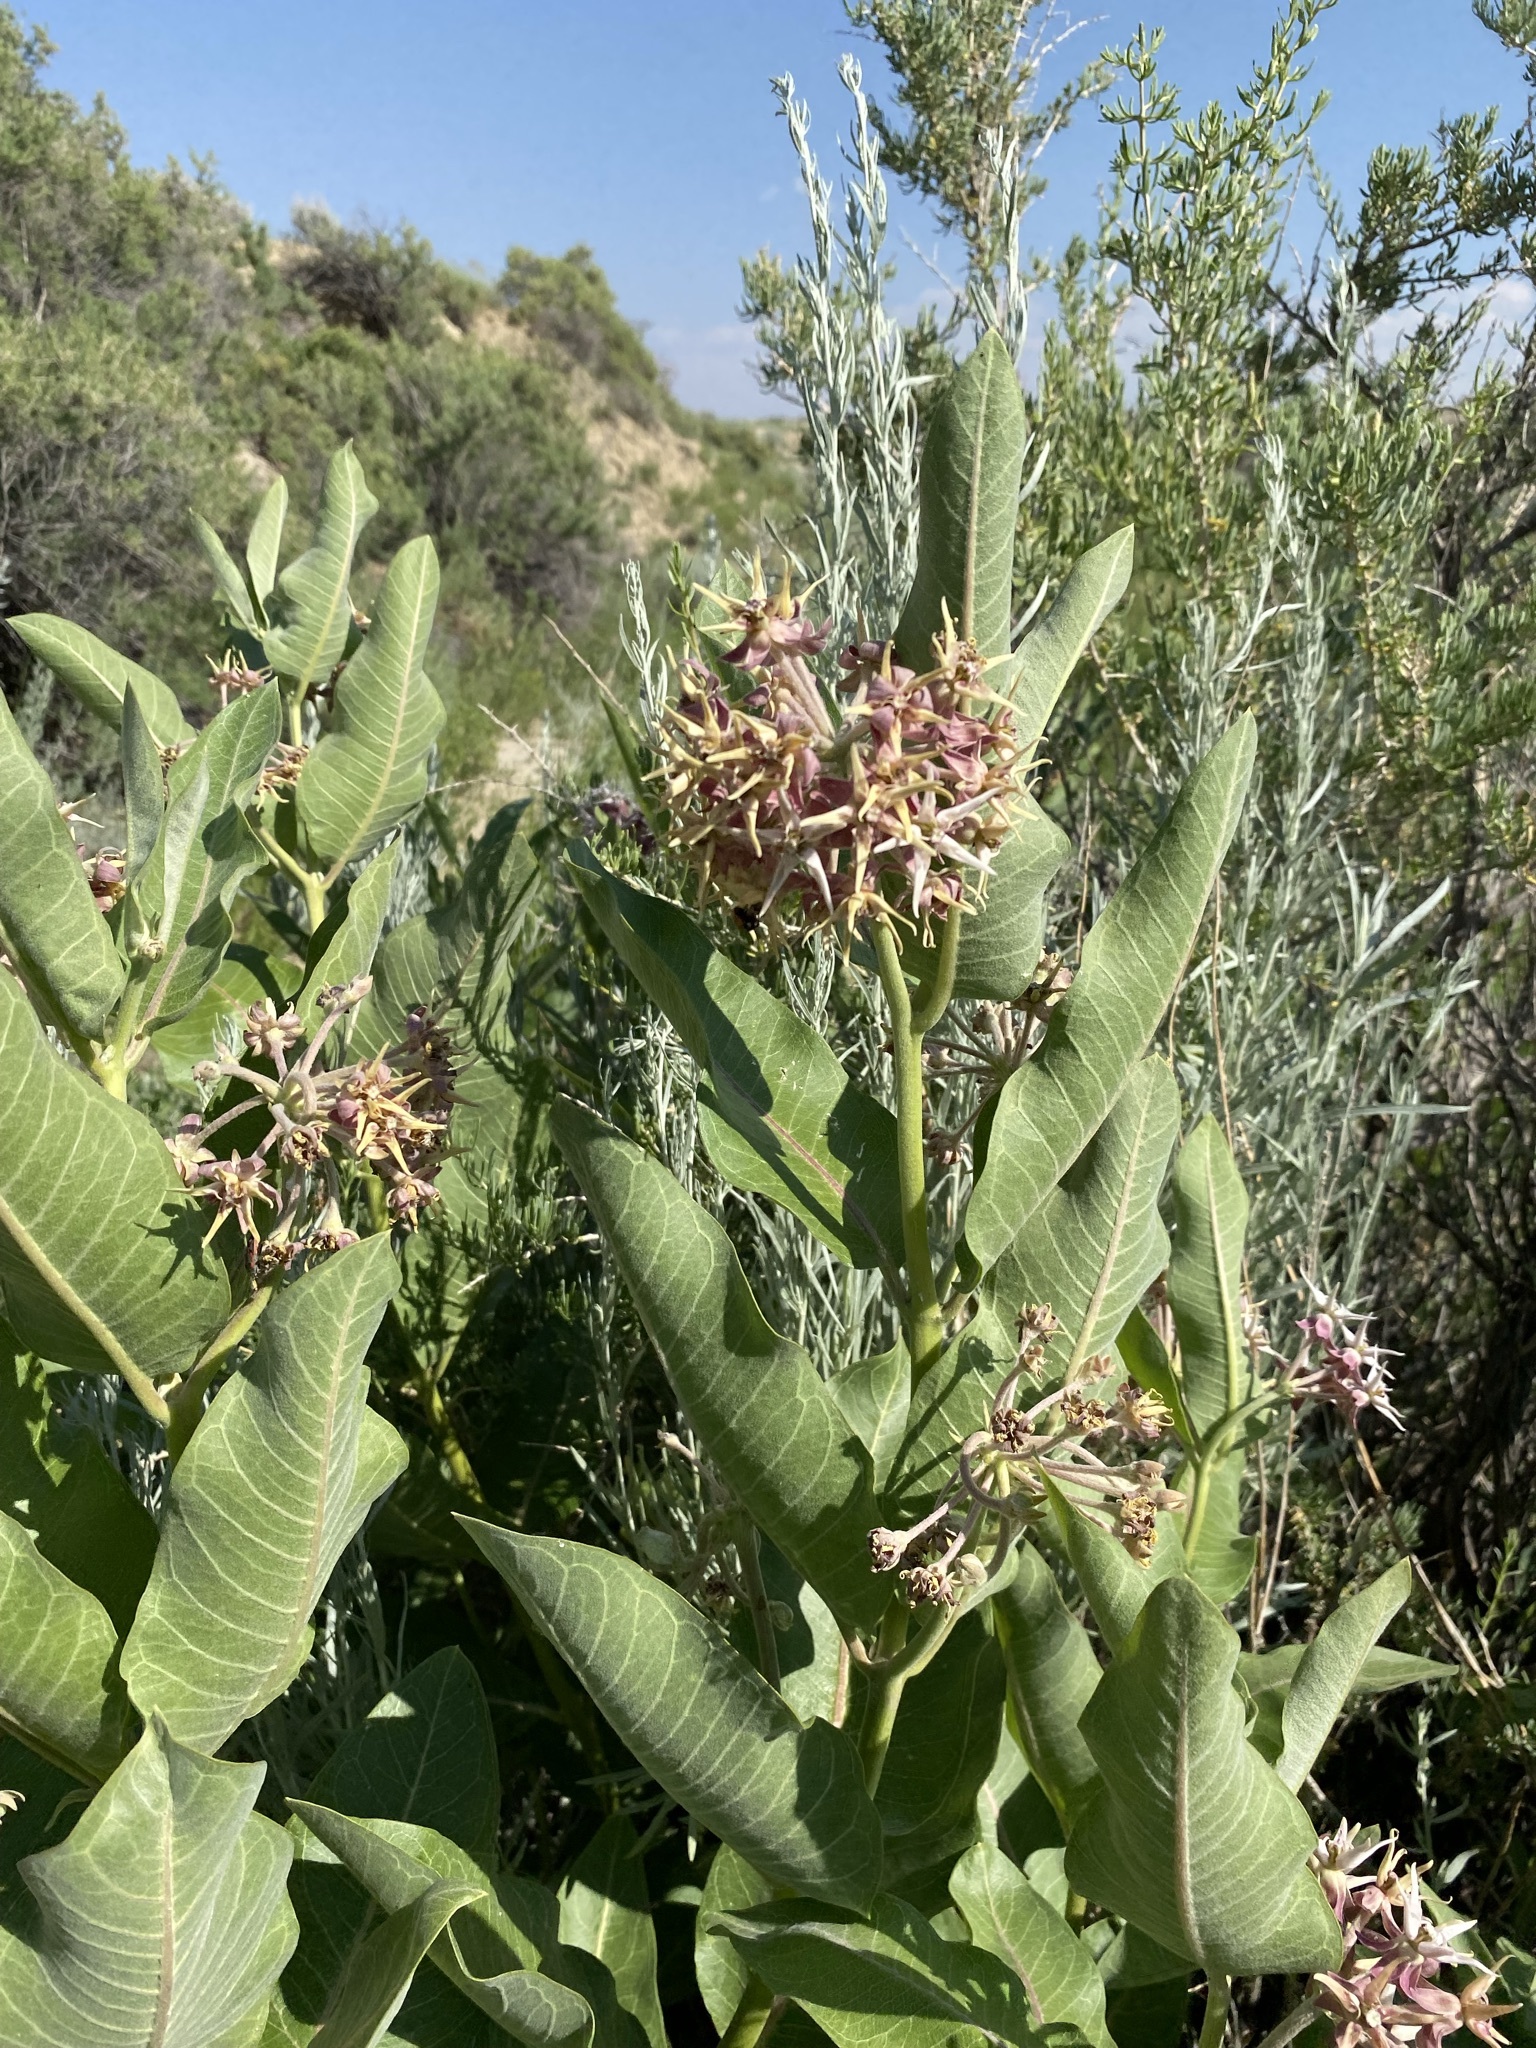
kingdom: Plantae
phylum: Tracheophyta
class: Magnoliopsida
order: Gentianales
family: Apocynaceae
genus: Asclepias
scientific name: Asclepias speciosa
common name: Showy milkweed
